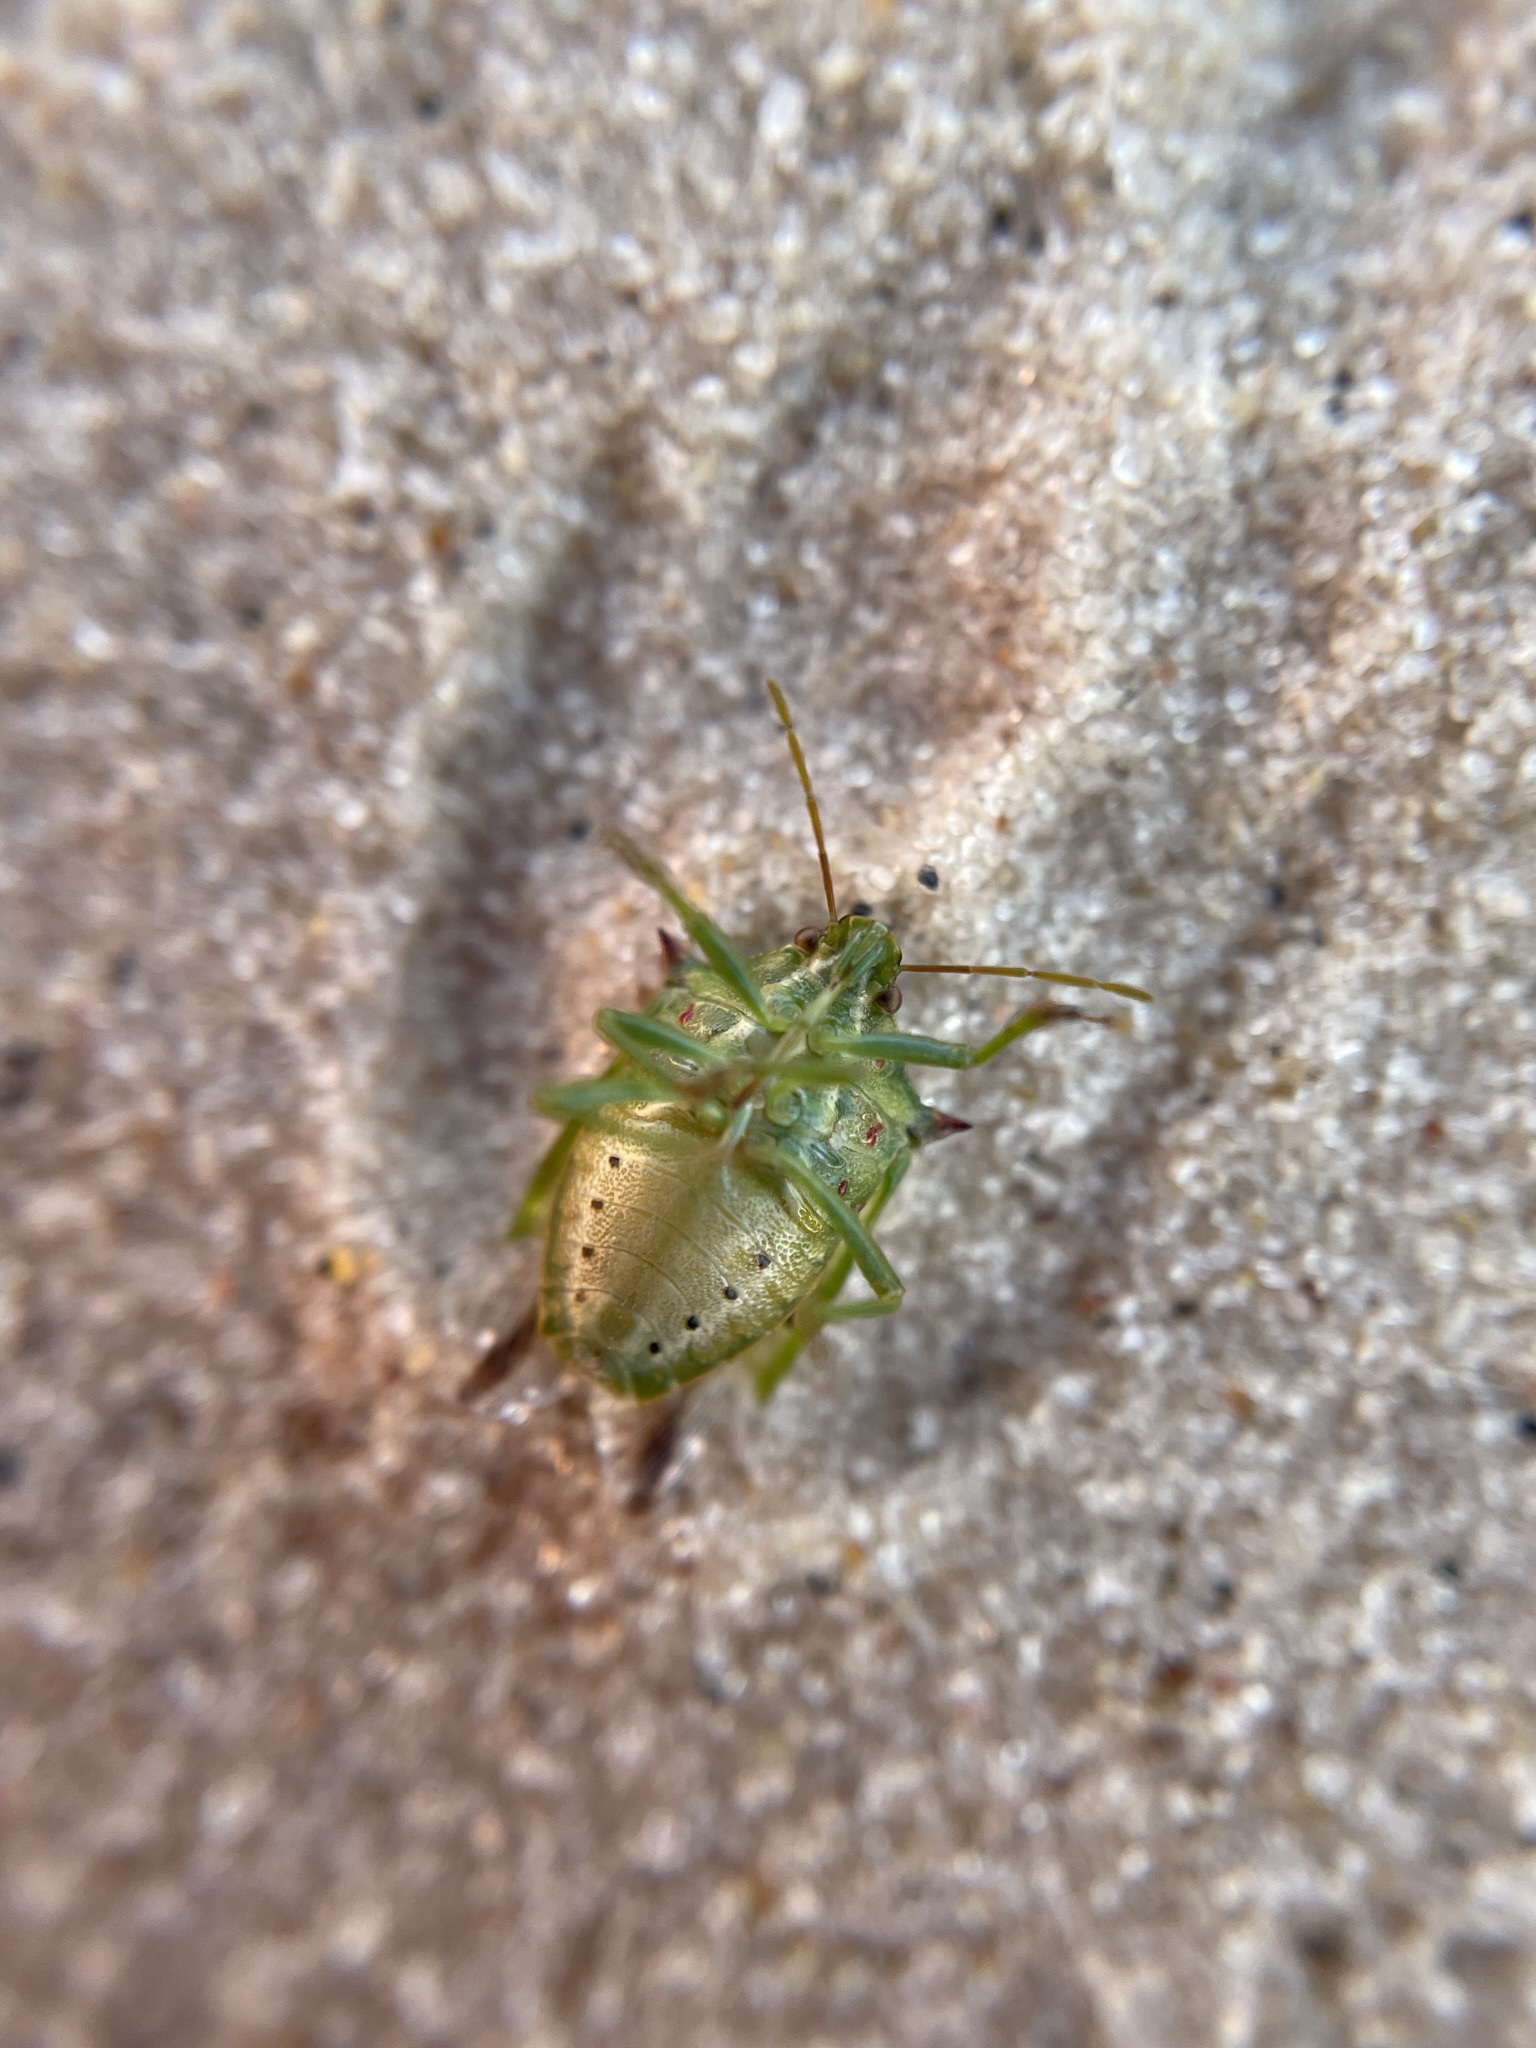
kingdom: Animalia
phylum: Arthropoda
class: Insecta
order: Hemiptera
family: Pentatomidae
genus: Tylospilus
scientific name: Tylospilus acutissimus
